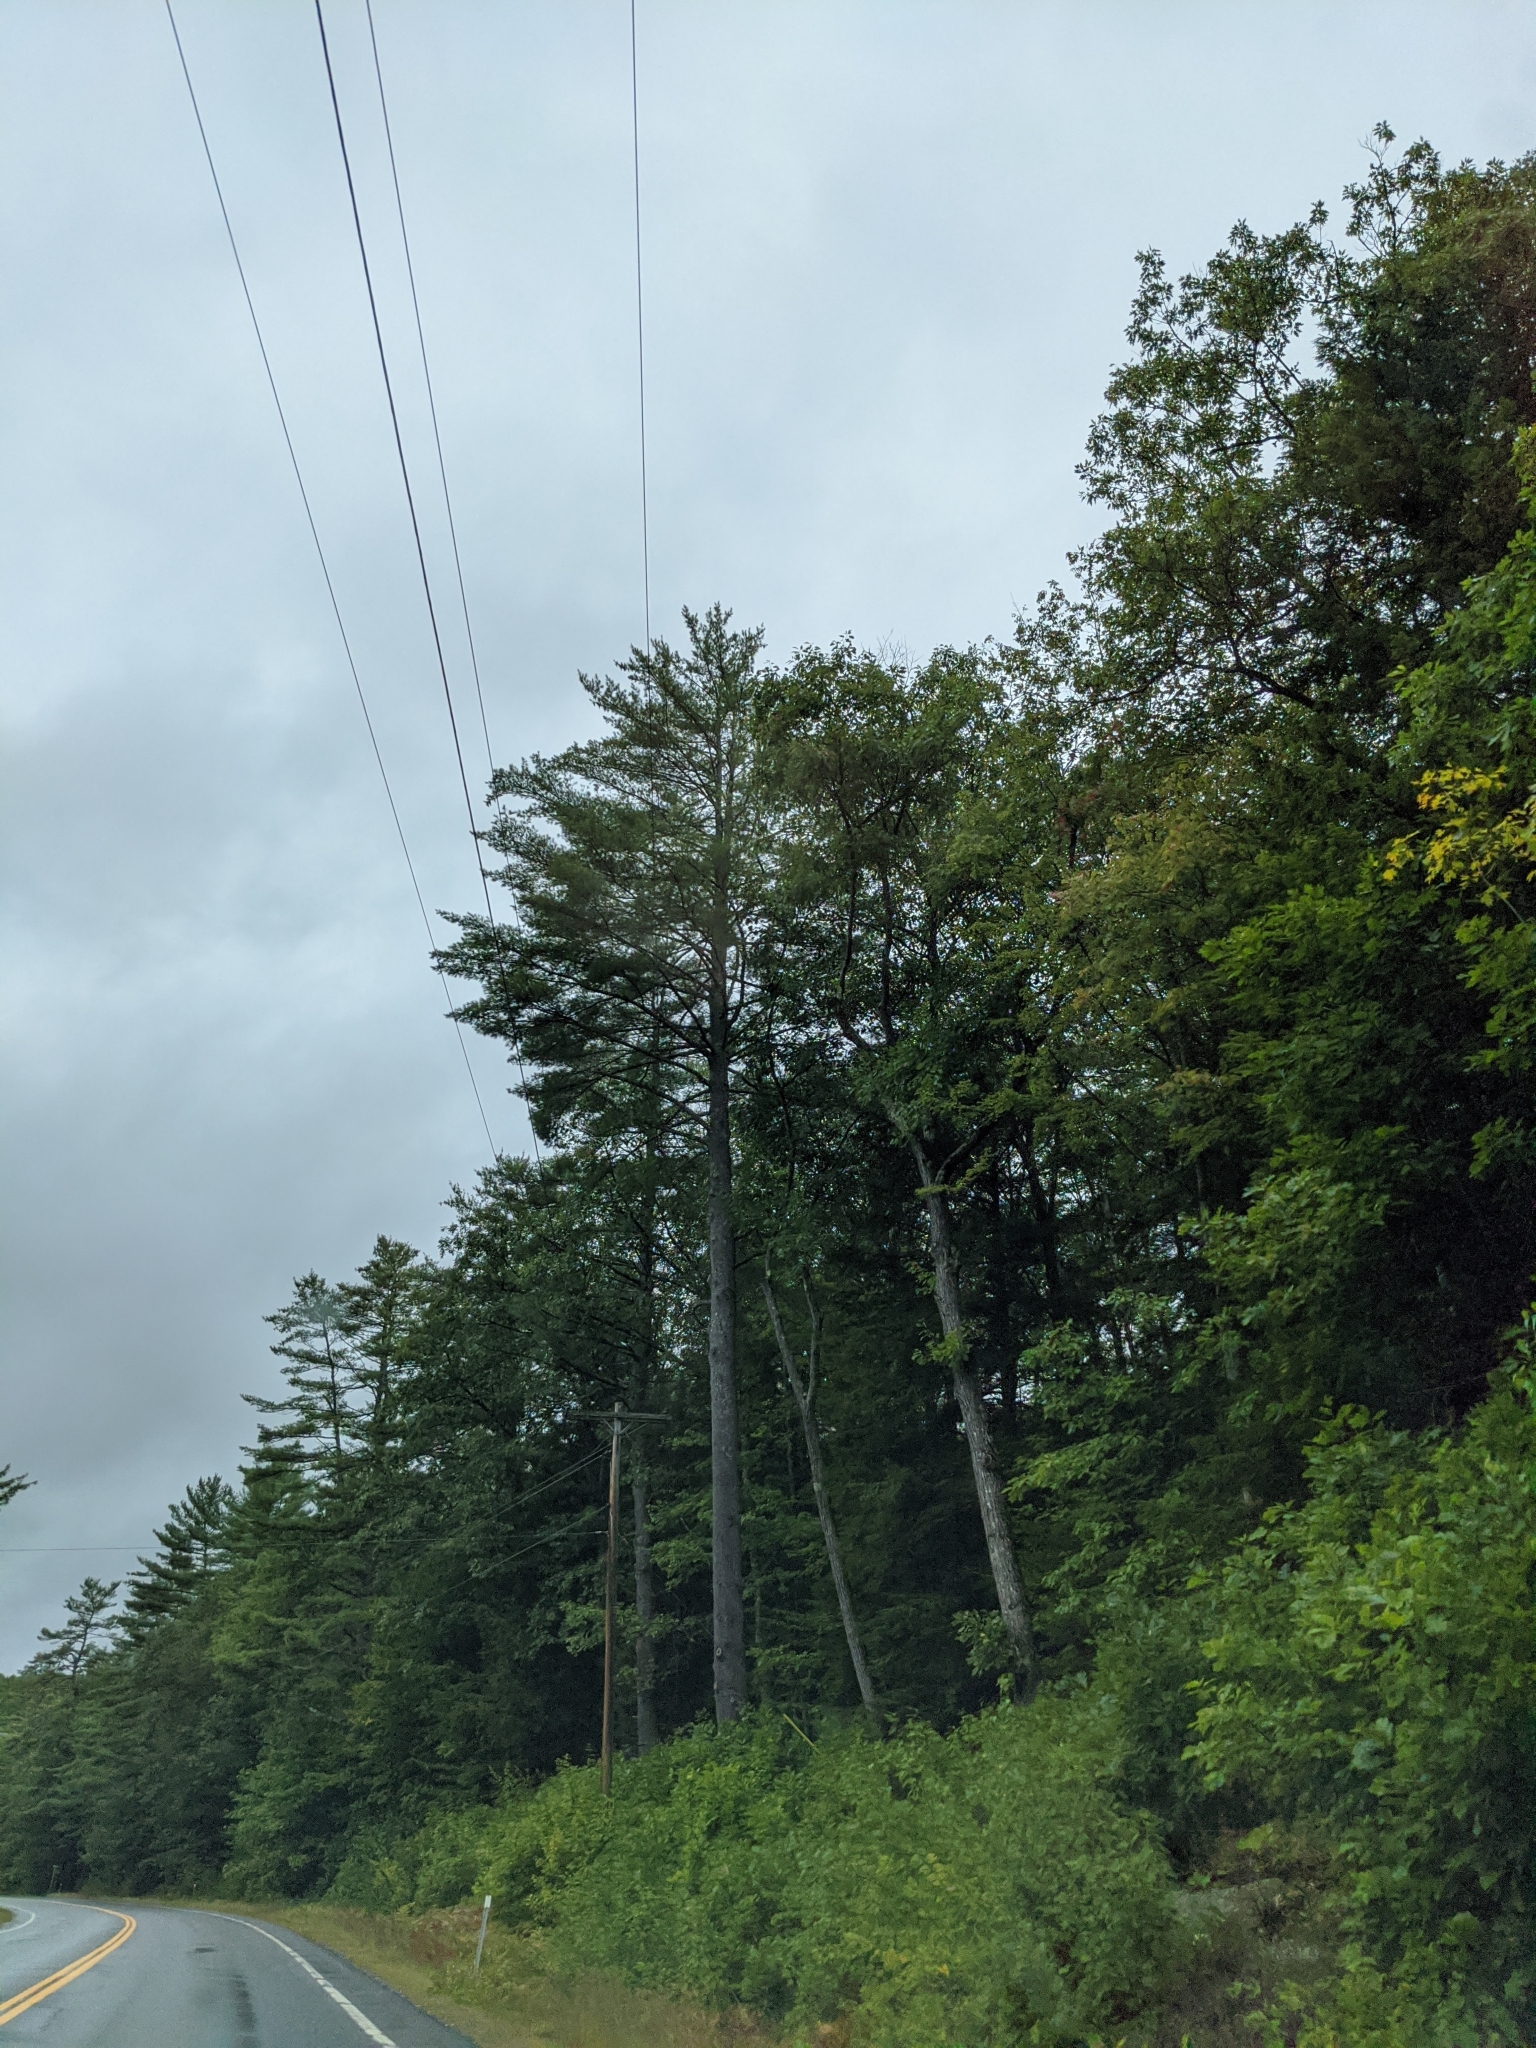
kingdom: Plantae
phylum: Tracheophyta
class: Pinopsida
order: Pinales
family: Pinaceae
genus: Pinus
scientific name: Pinus strobus
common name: Weymouth pine
